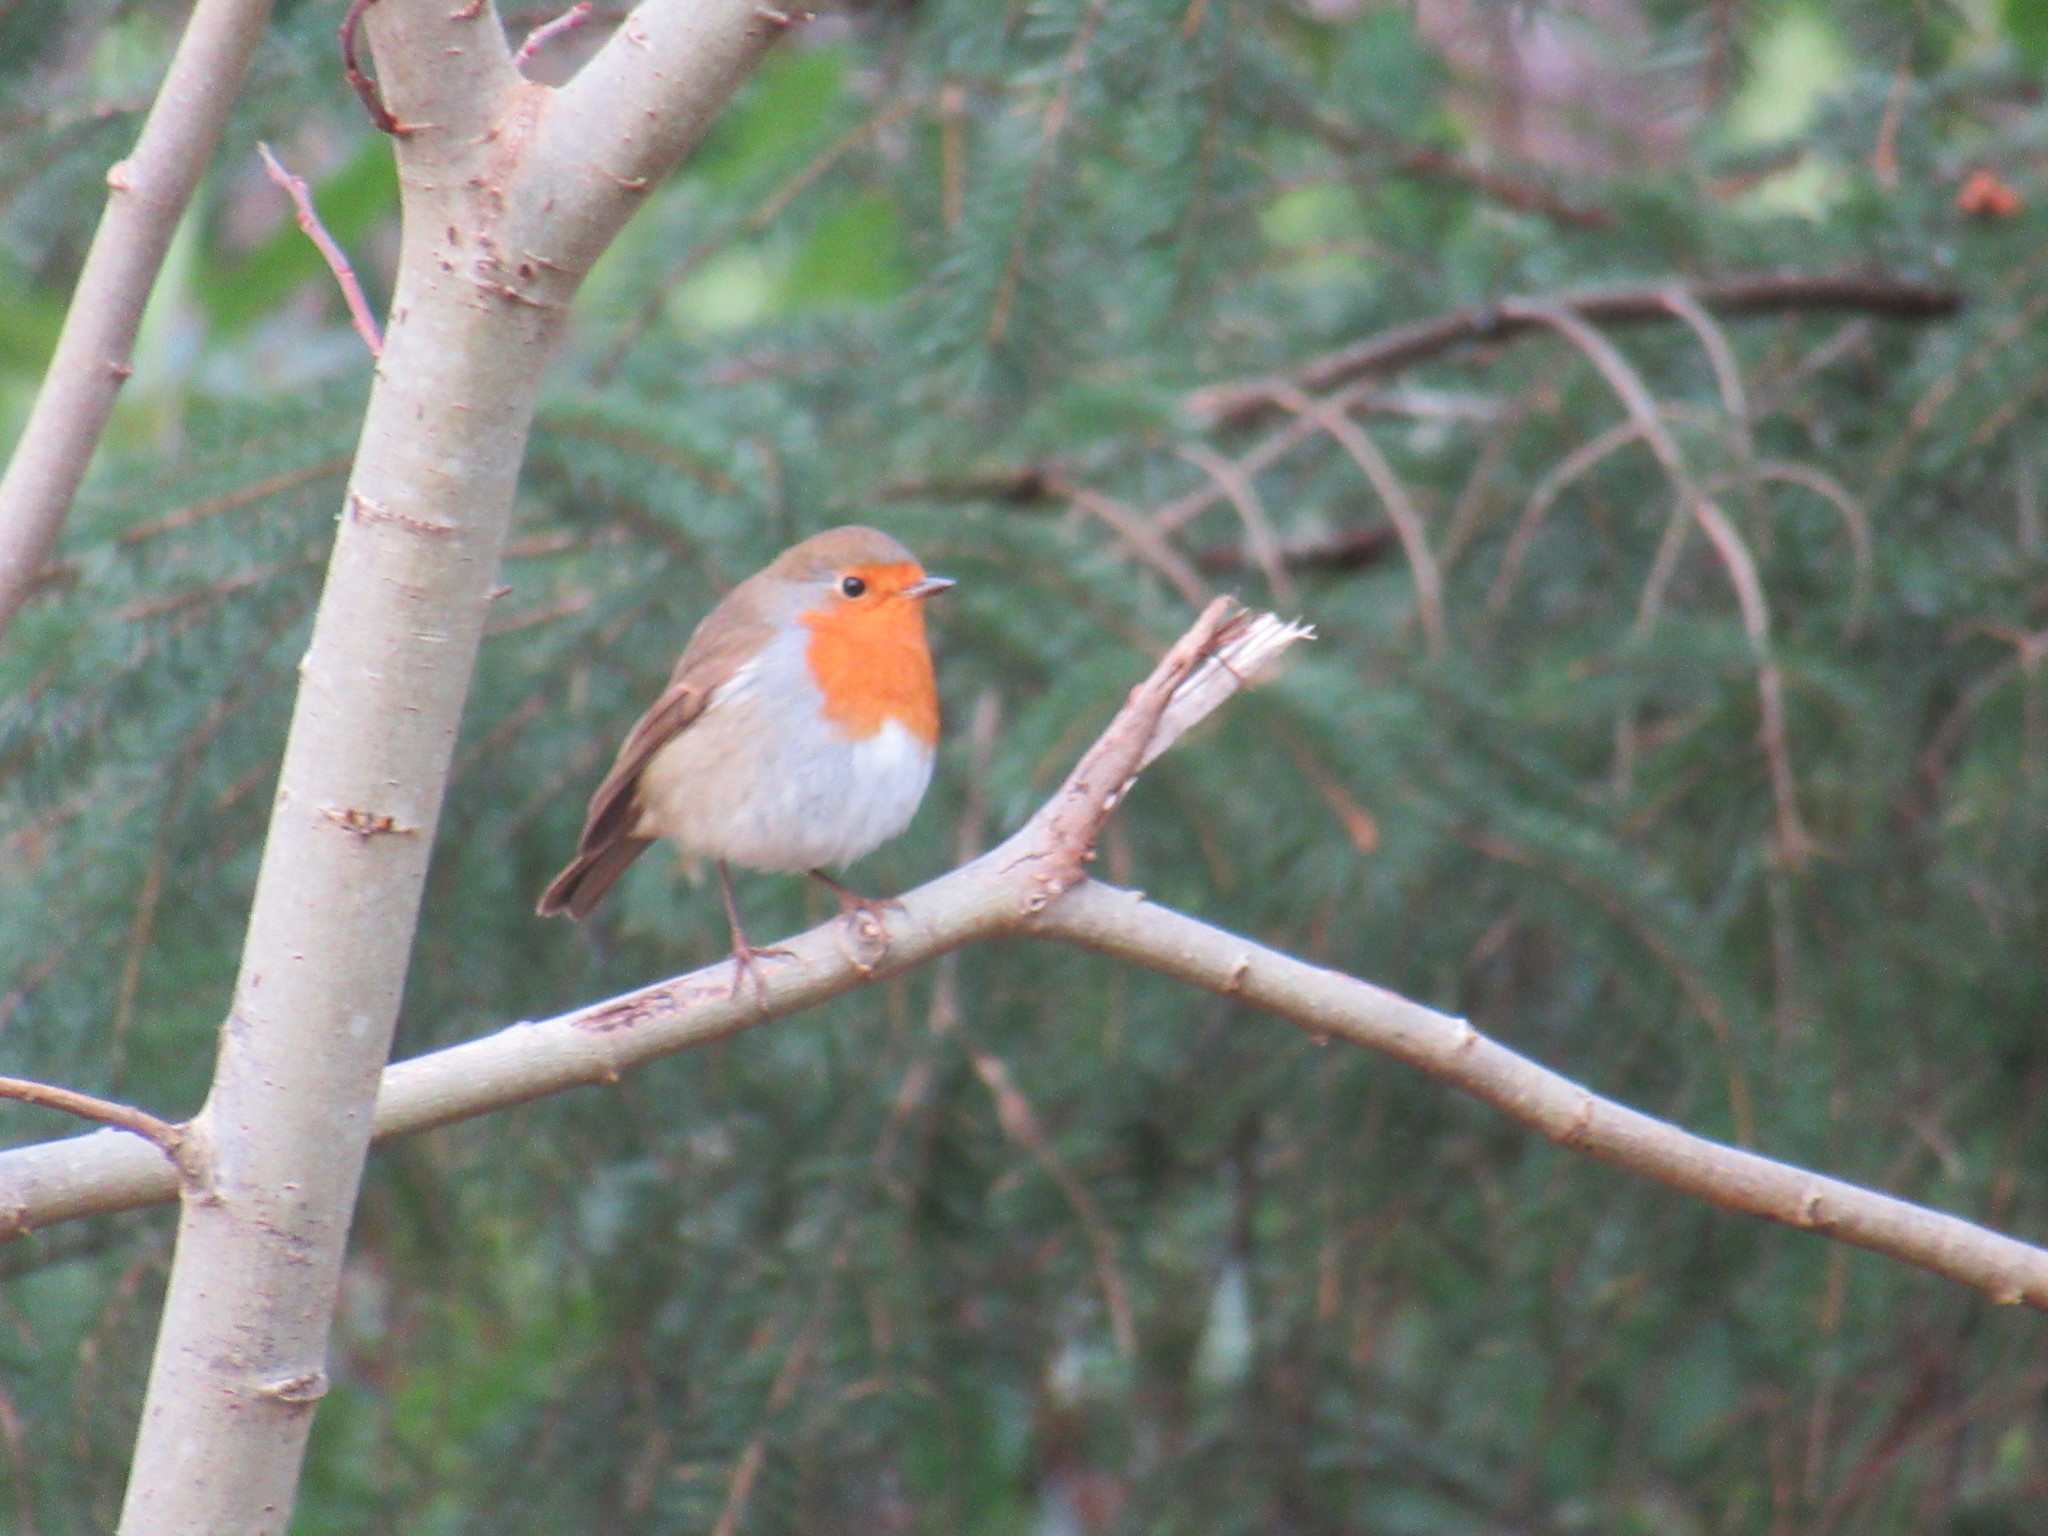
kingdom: Animalia
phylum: Chordata
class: Aves
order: Passeriformes
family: Muscicapidae
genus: Erithacus
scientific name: Erithacus rubecula
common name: European robin
